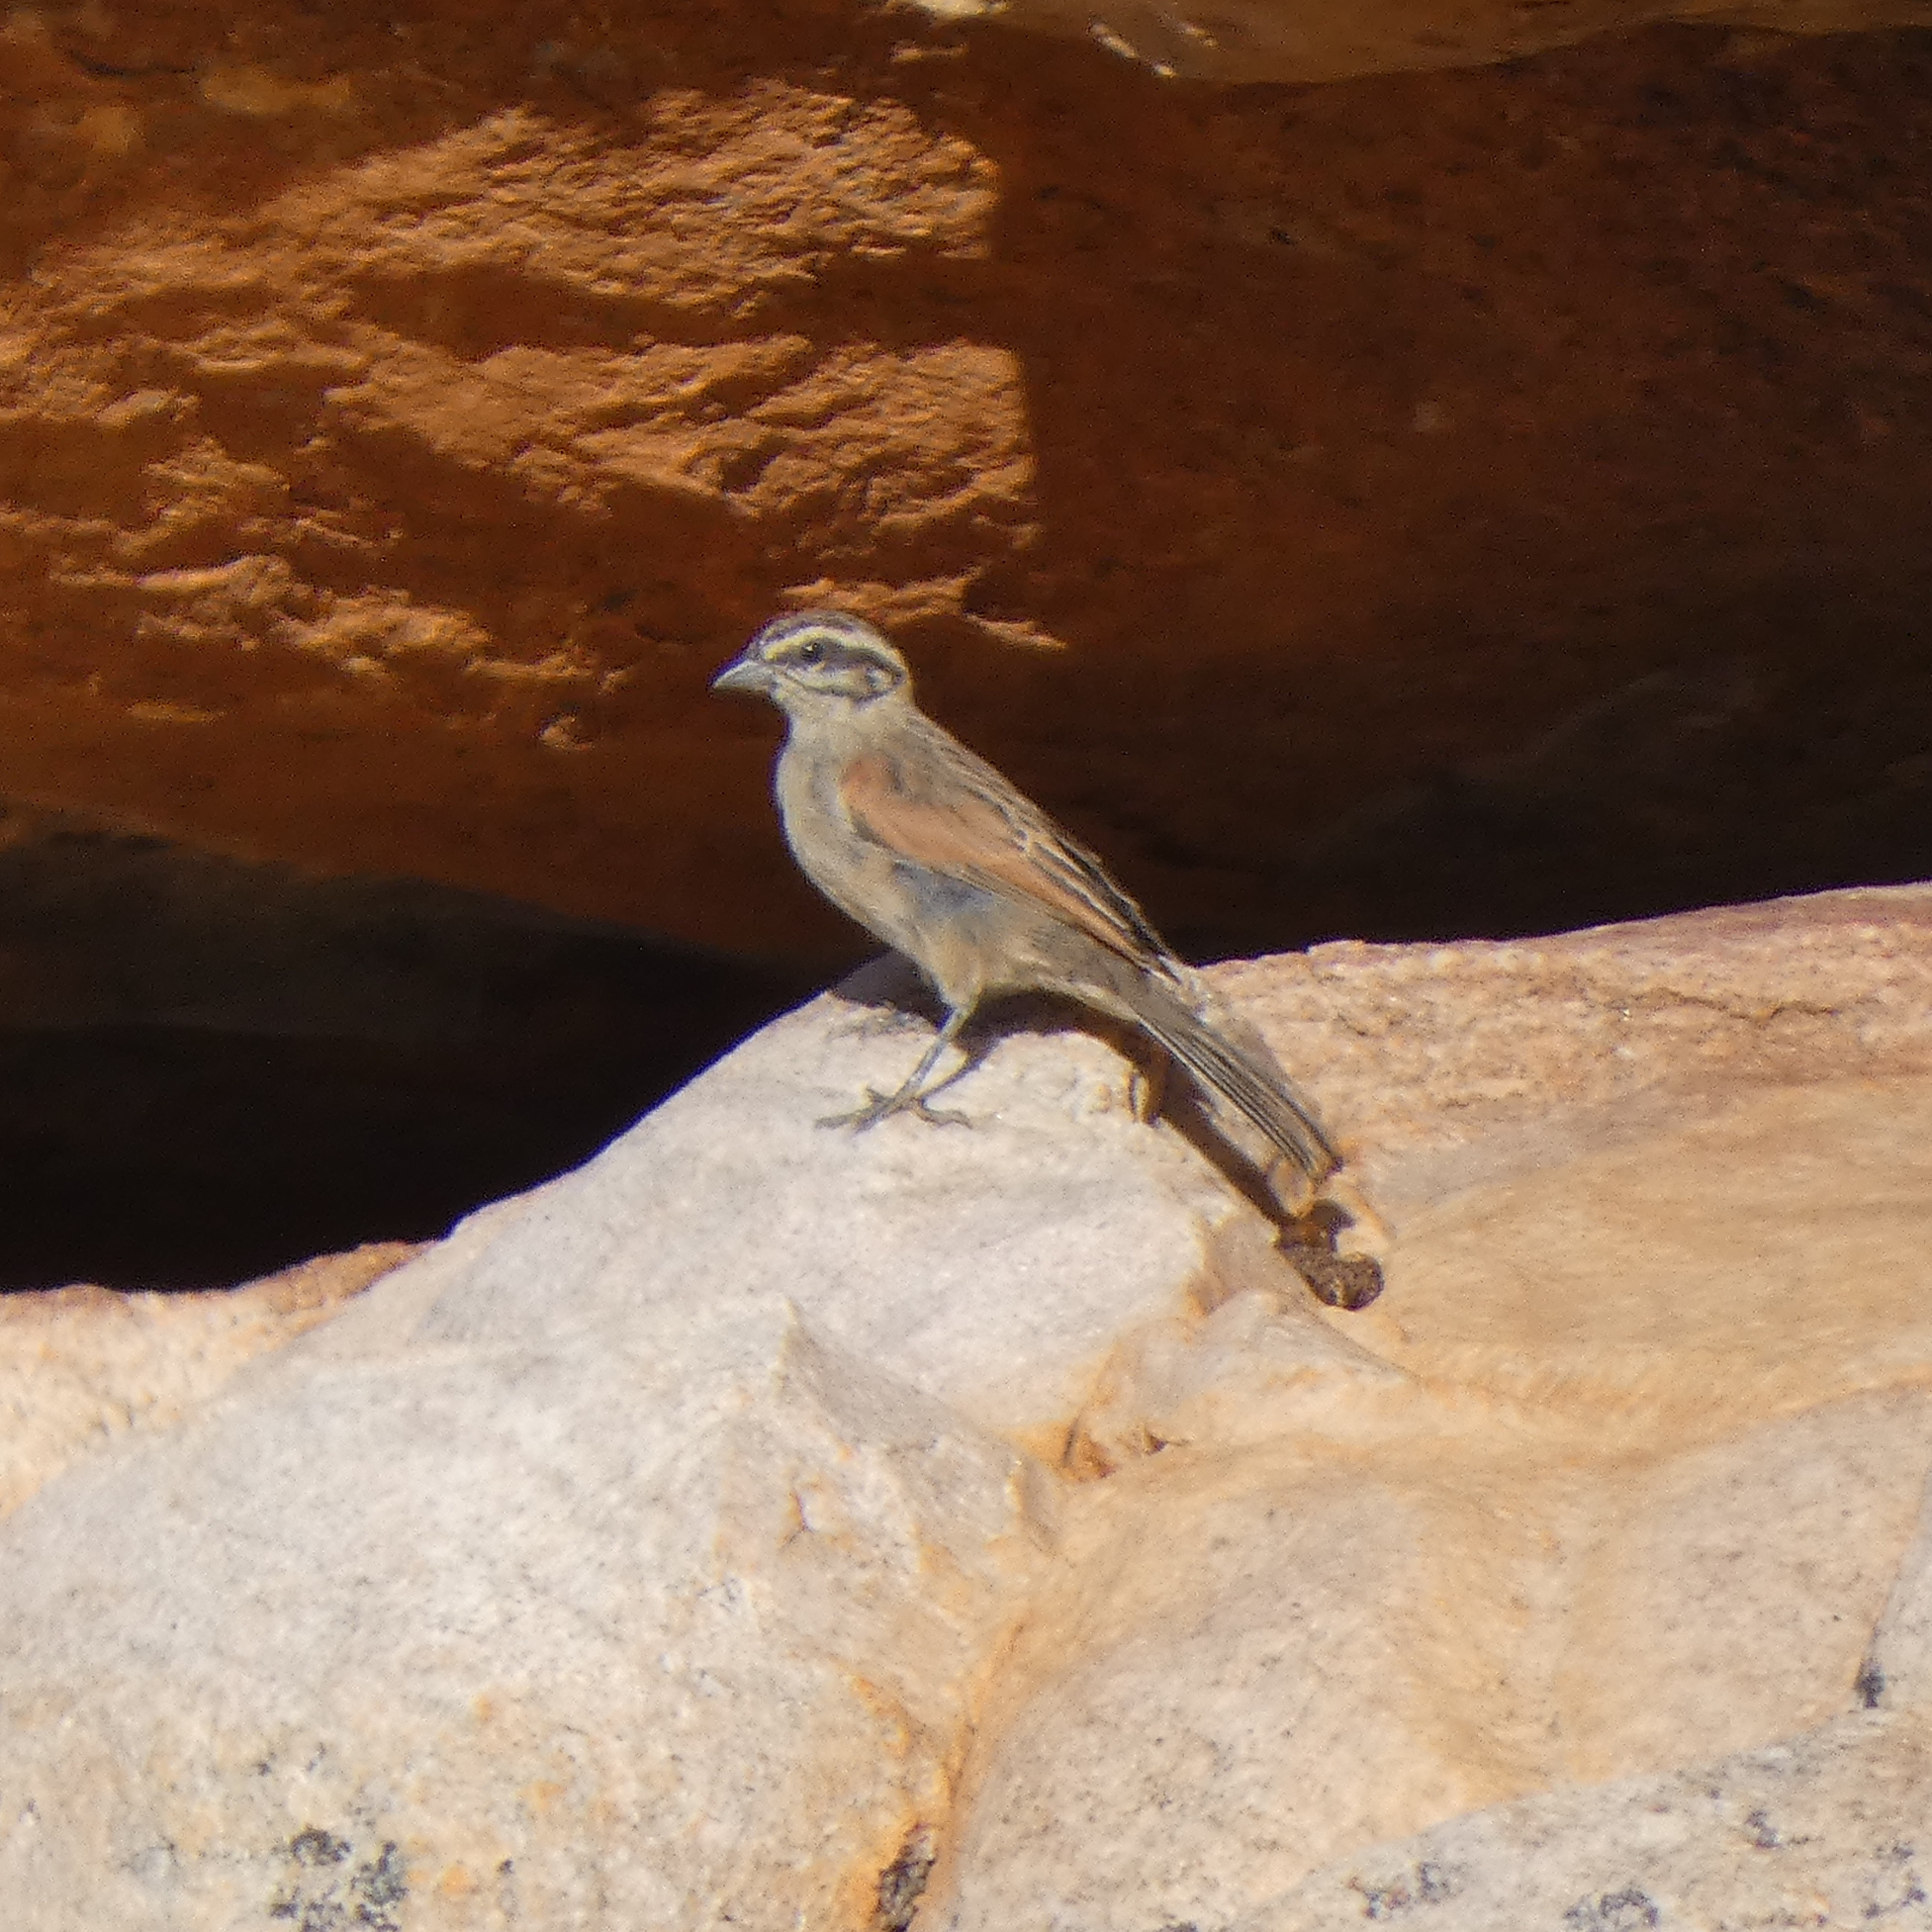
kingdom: Animalia
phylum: Chordata
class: Aves
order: Passeriformes
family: Emberizidae
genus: Emberiza
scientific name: Emberiza capensis
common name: Cape bunting
